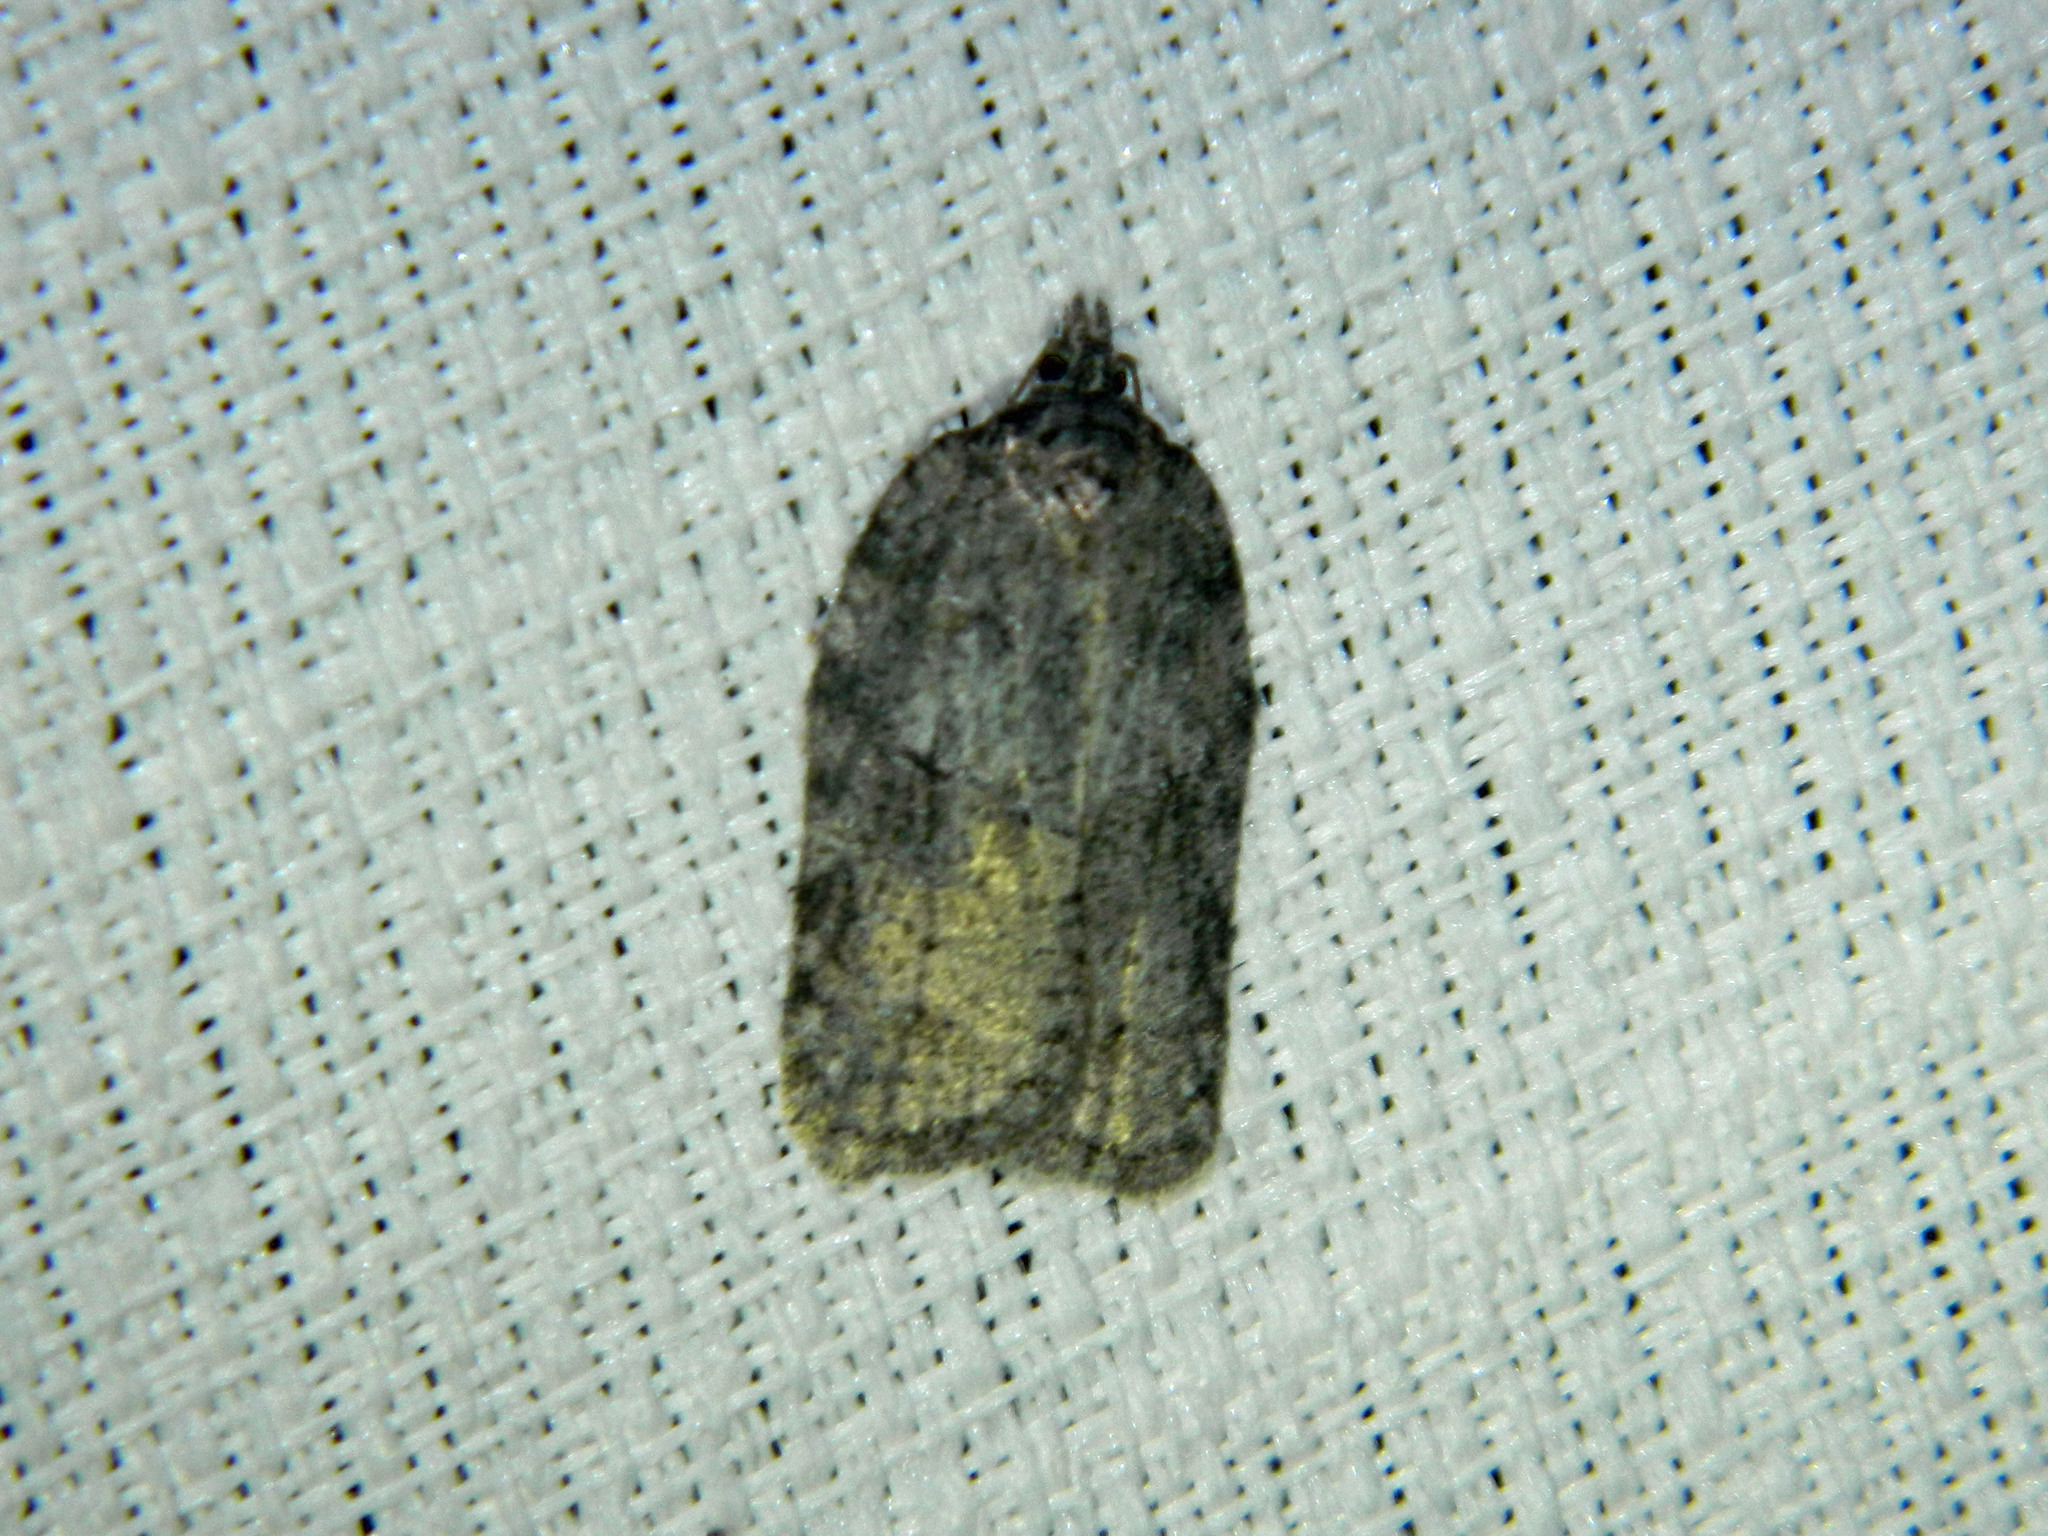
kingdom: Animalia
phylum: Arthropoda
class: Insecta
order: Lepidoptera
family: Tortricidae
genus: Acleris
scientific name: Acleris nigrolinea
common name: Black-lined acleris
